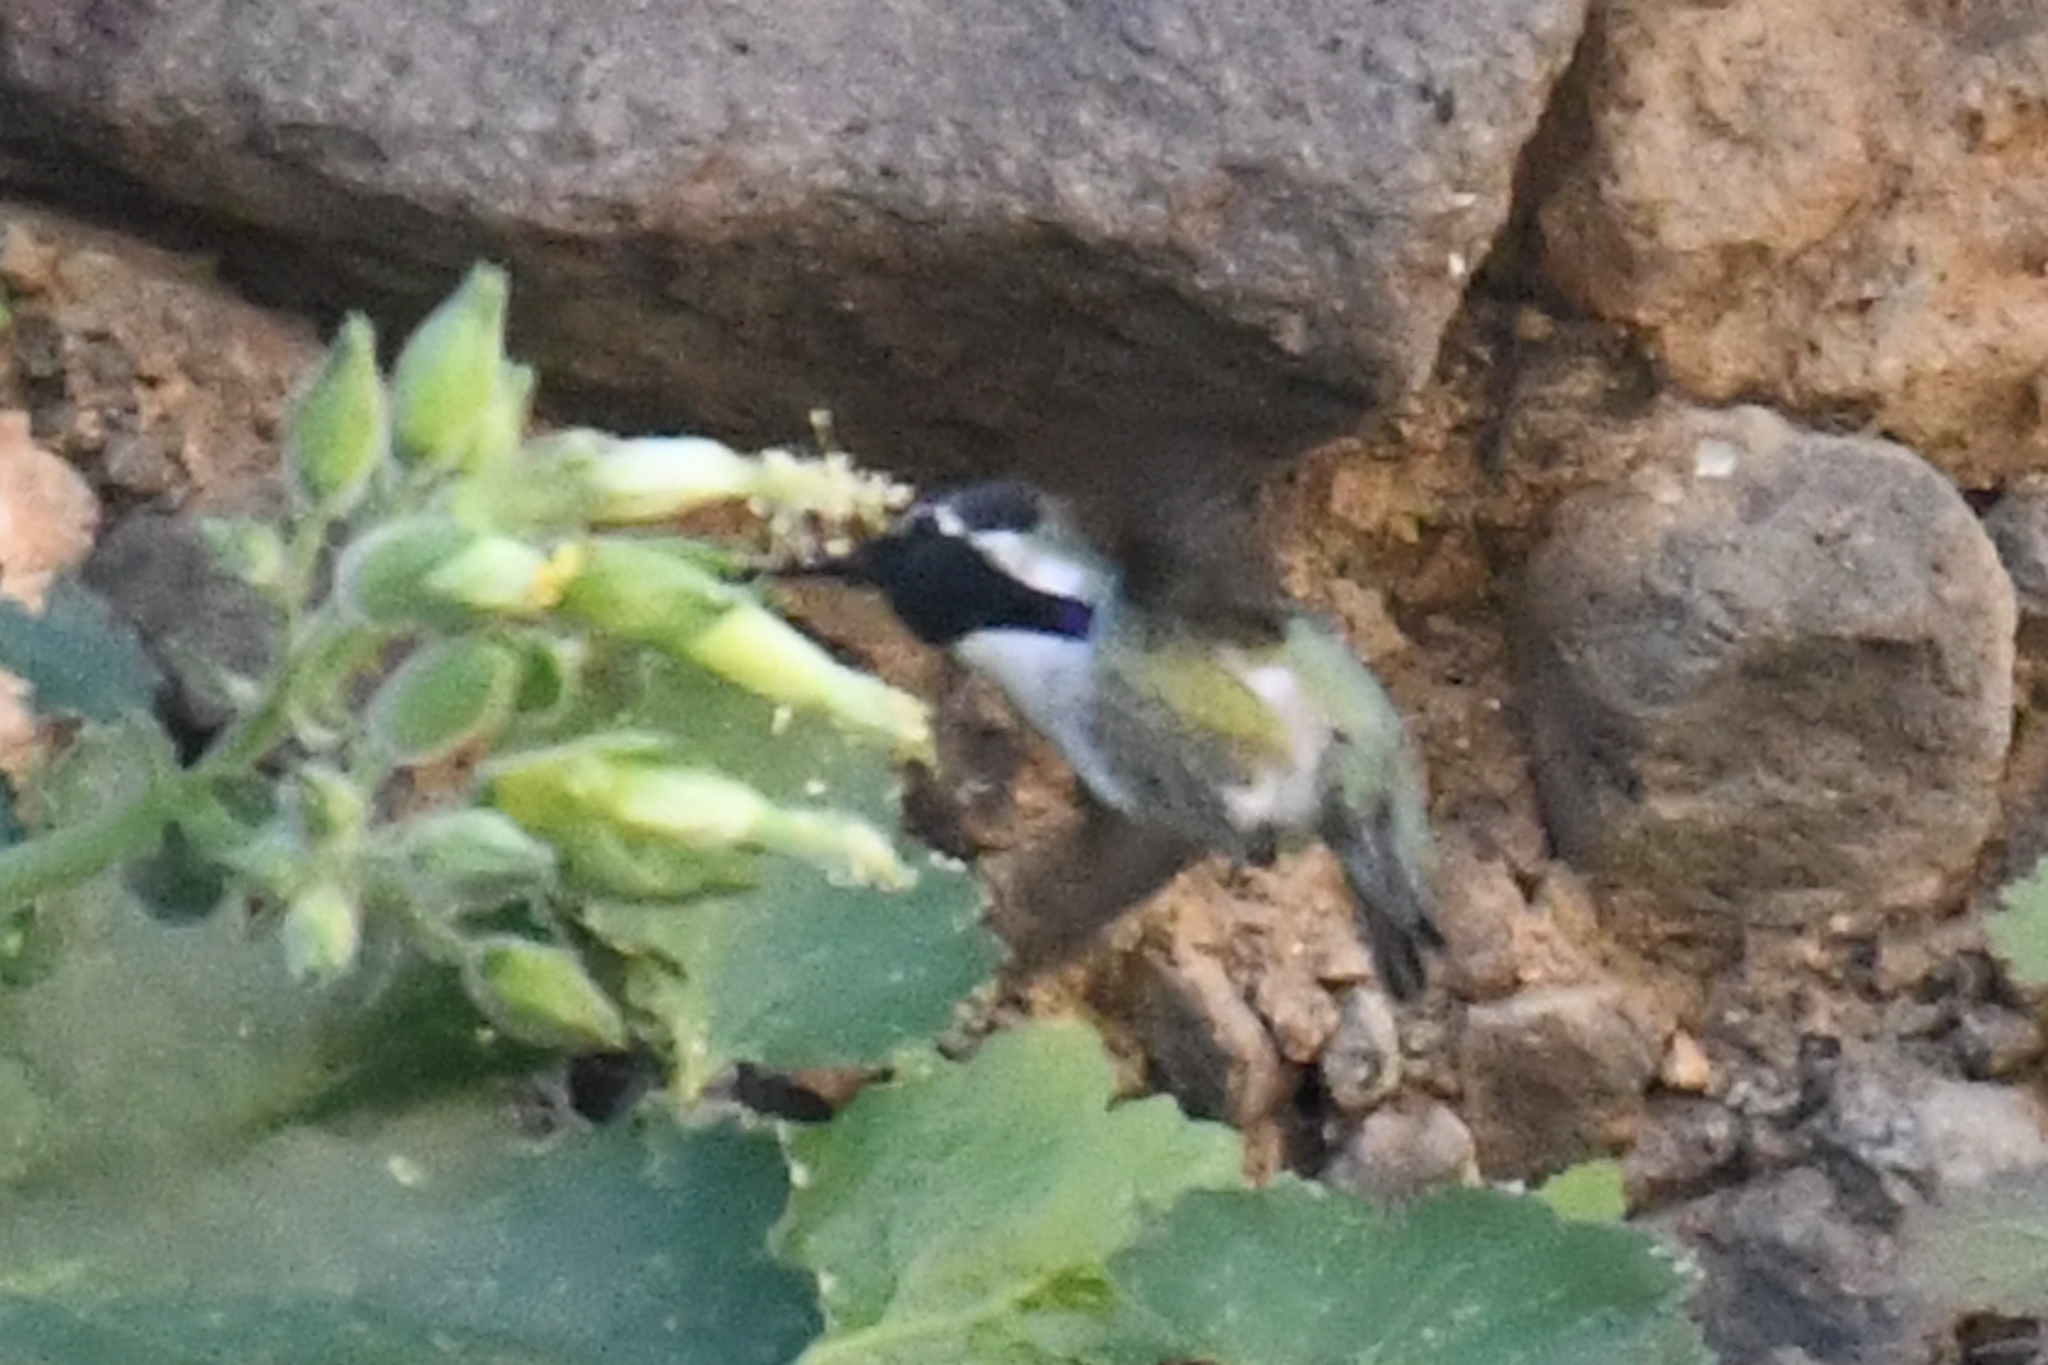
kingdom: Animalia
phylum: Chordata
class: Aves
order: Apodiformes
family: Trochilidae
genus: Calypte
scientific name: Calypte costae
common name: Costa's hummingbird
